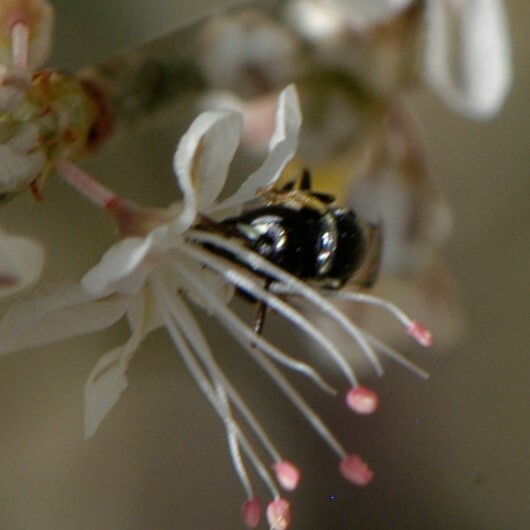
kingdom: Animalia
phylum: Arthropoda
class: Insecta
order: Hymenoptera
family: Colletidae
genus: Hylaeus
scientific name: Hylaeus
